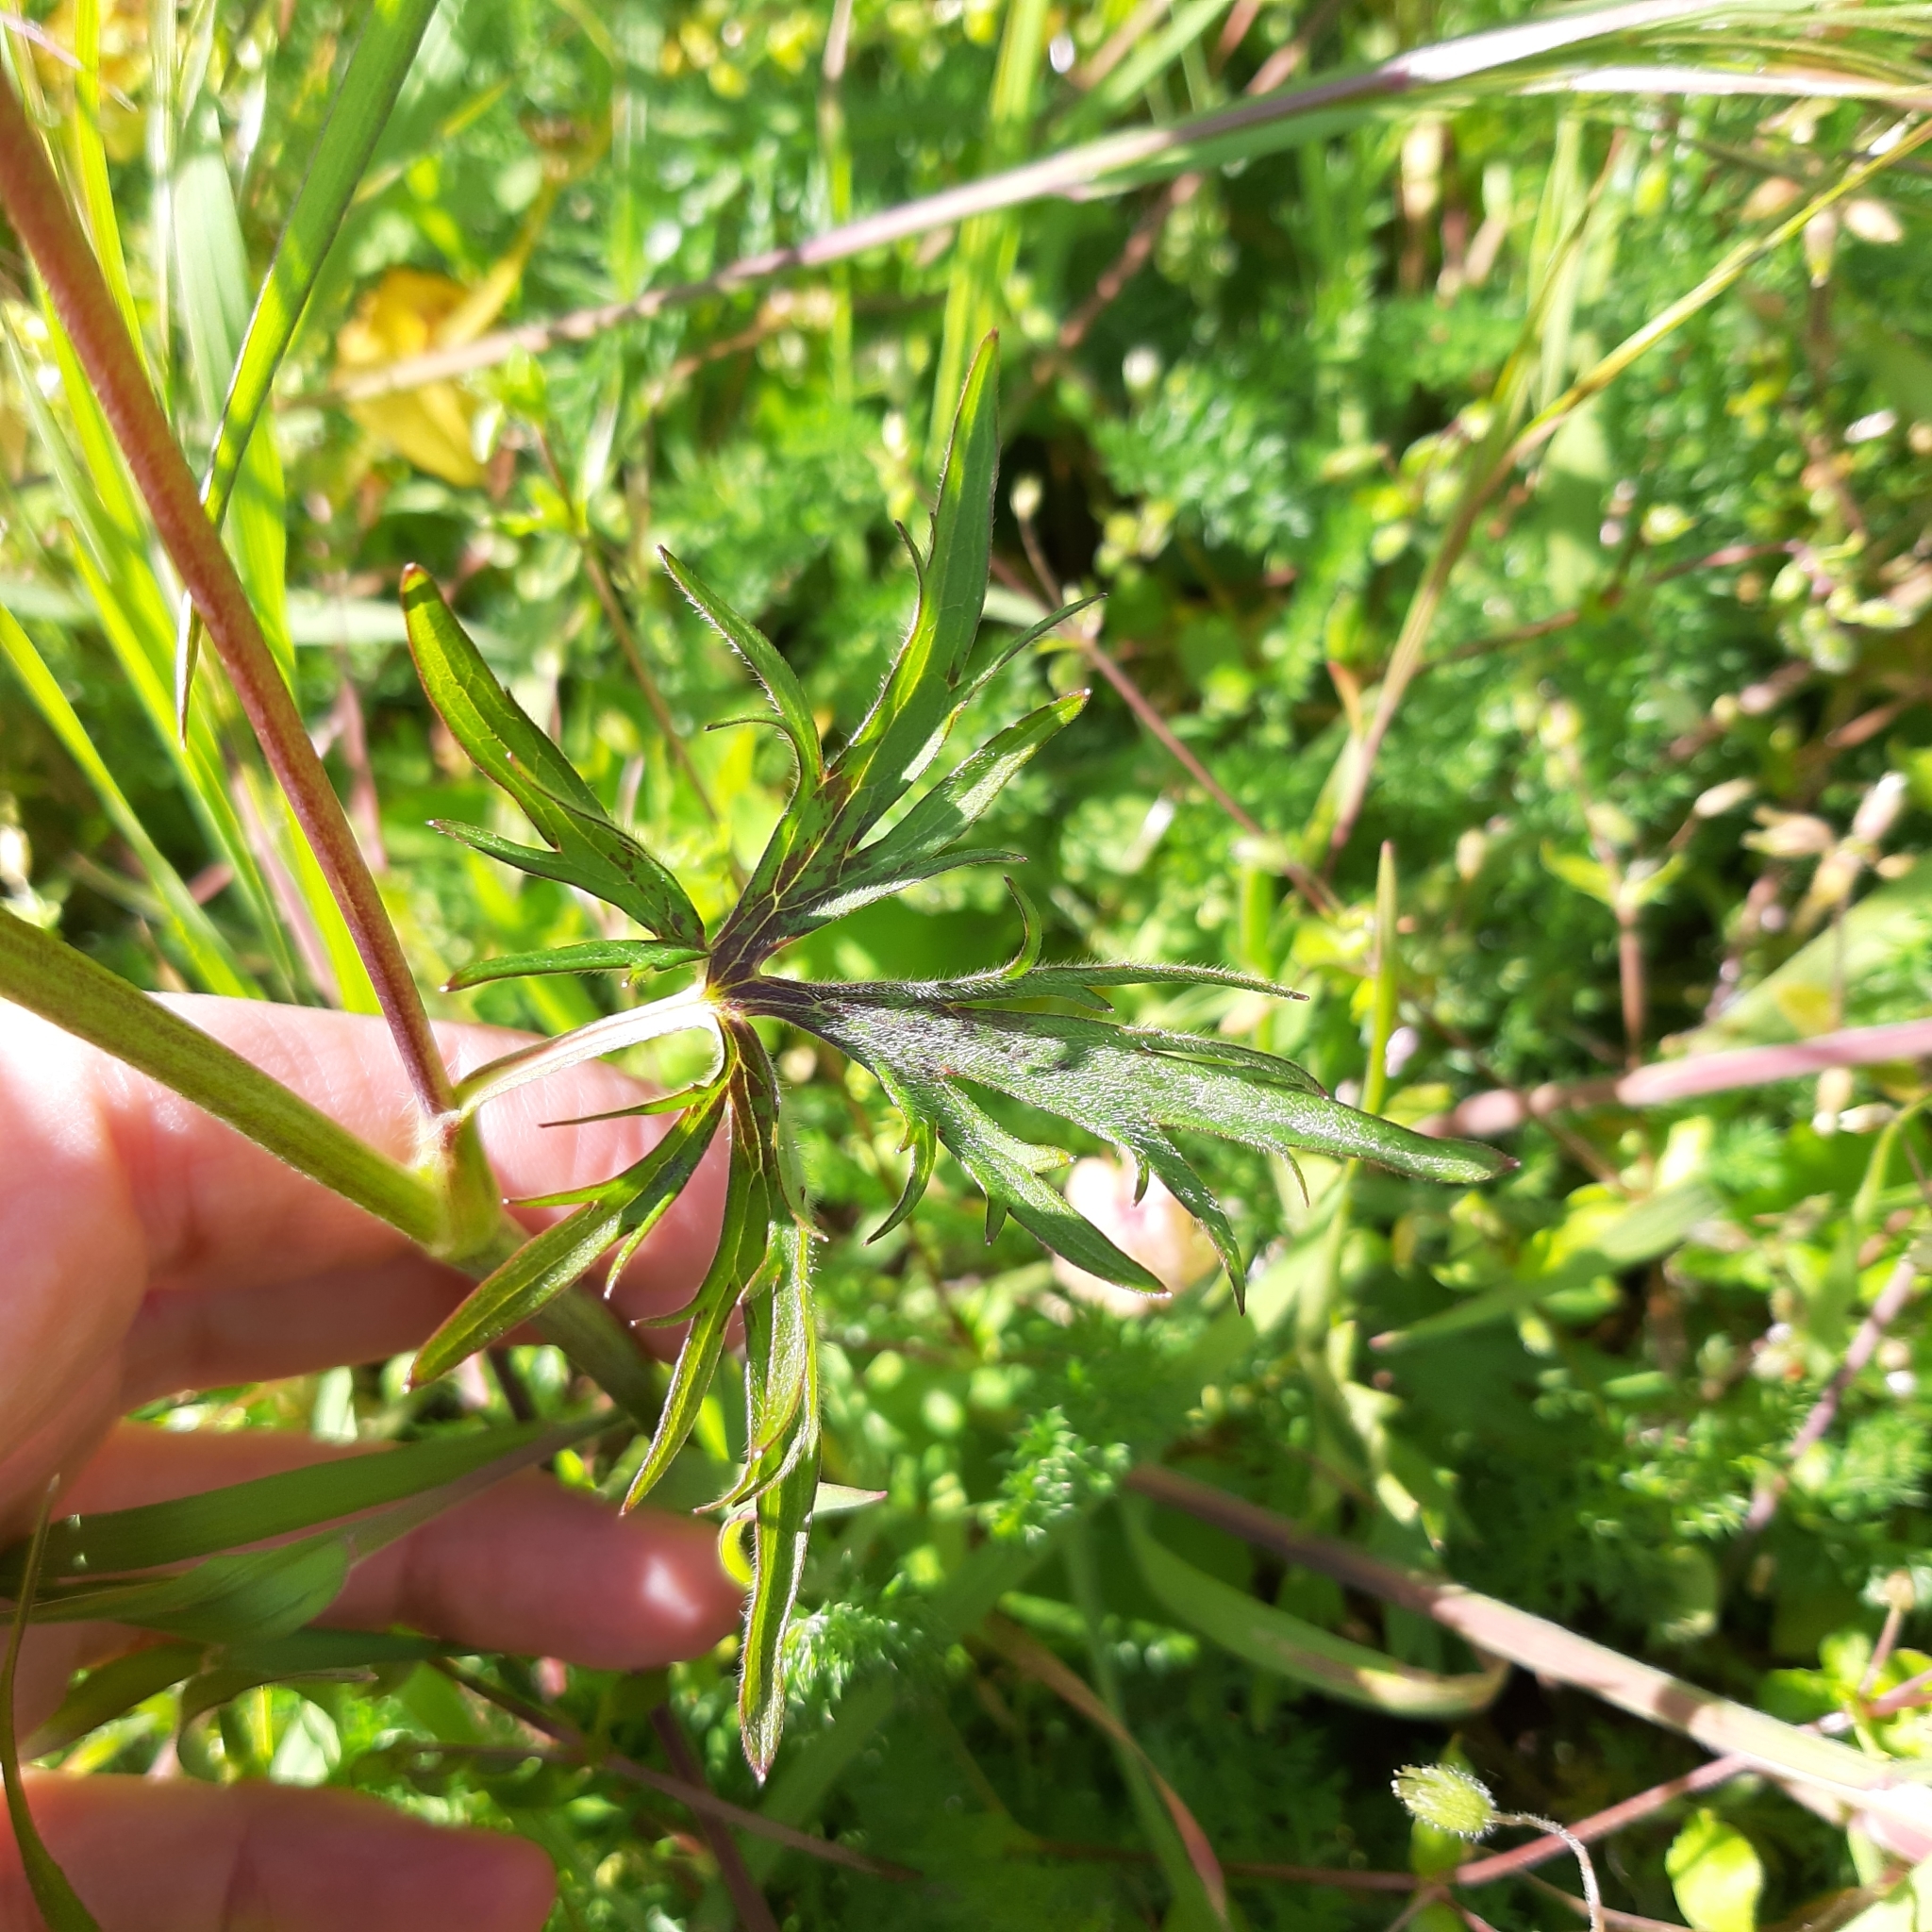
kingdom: Plantae
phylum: Tracheophyta
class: Magnoliopsida
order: Ranunculales
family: Ranunculaceae
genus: Ranunculus
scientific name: Ranunculus acris
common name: Meadow buttercup
